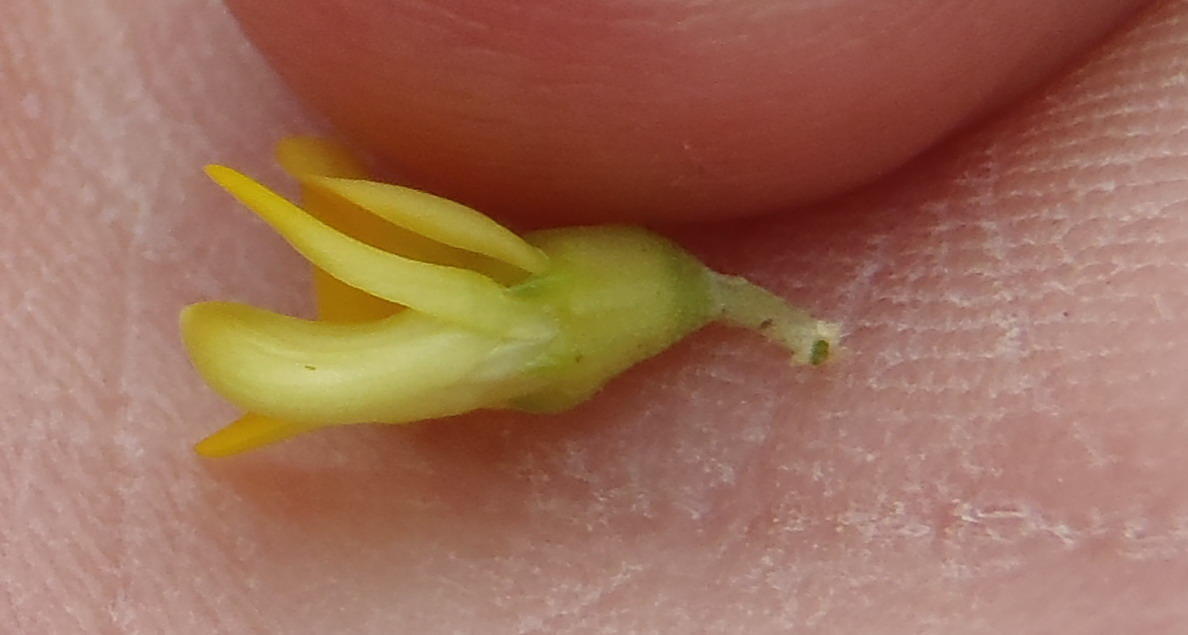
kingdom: Plantae
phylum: Tracheophyta
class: Magnoliopsida
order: Fabales
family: Fabaceae
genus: Aspalathus
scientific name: Aspalathus spinosa
